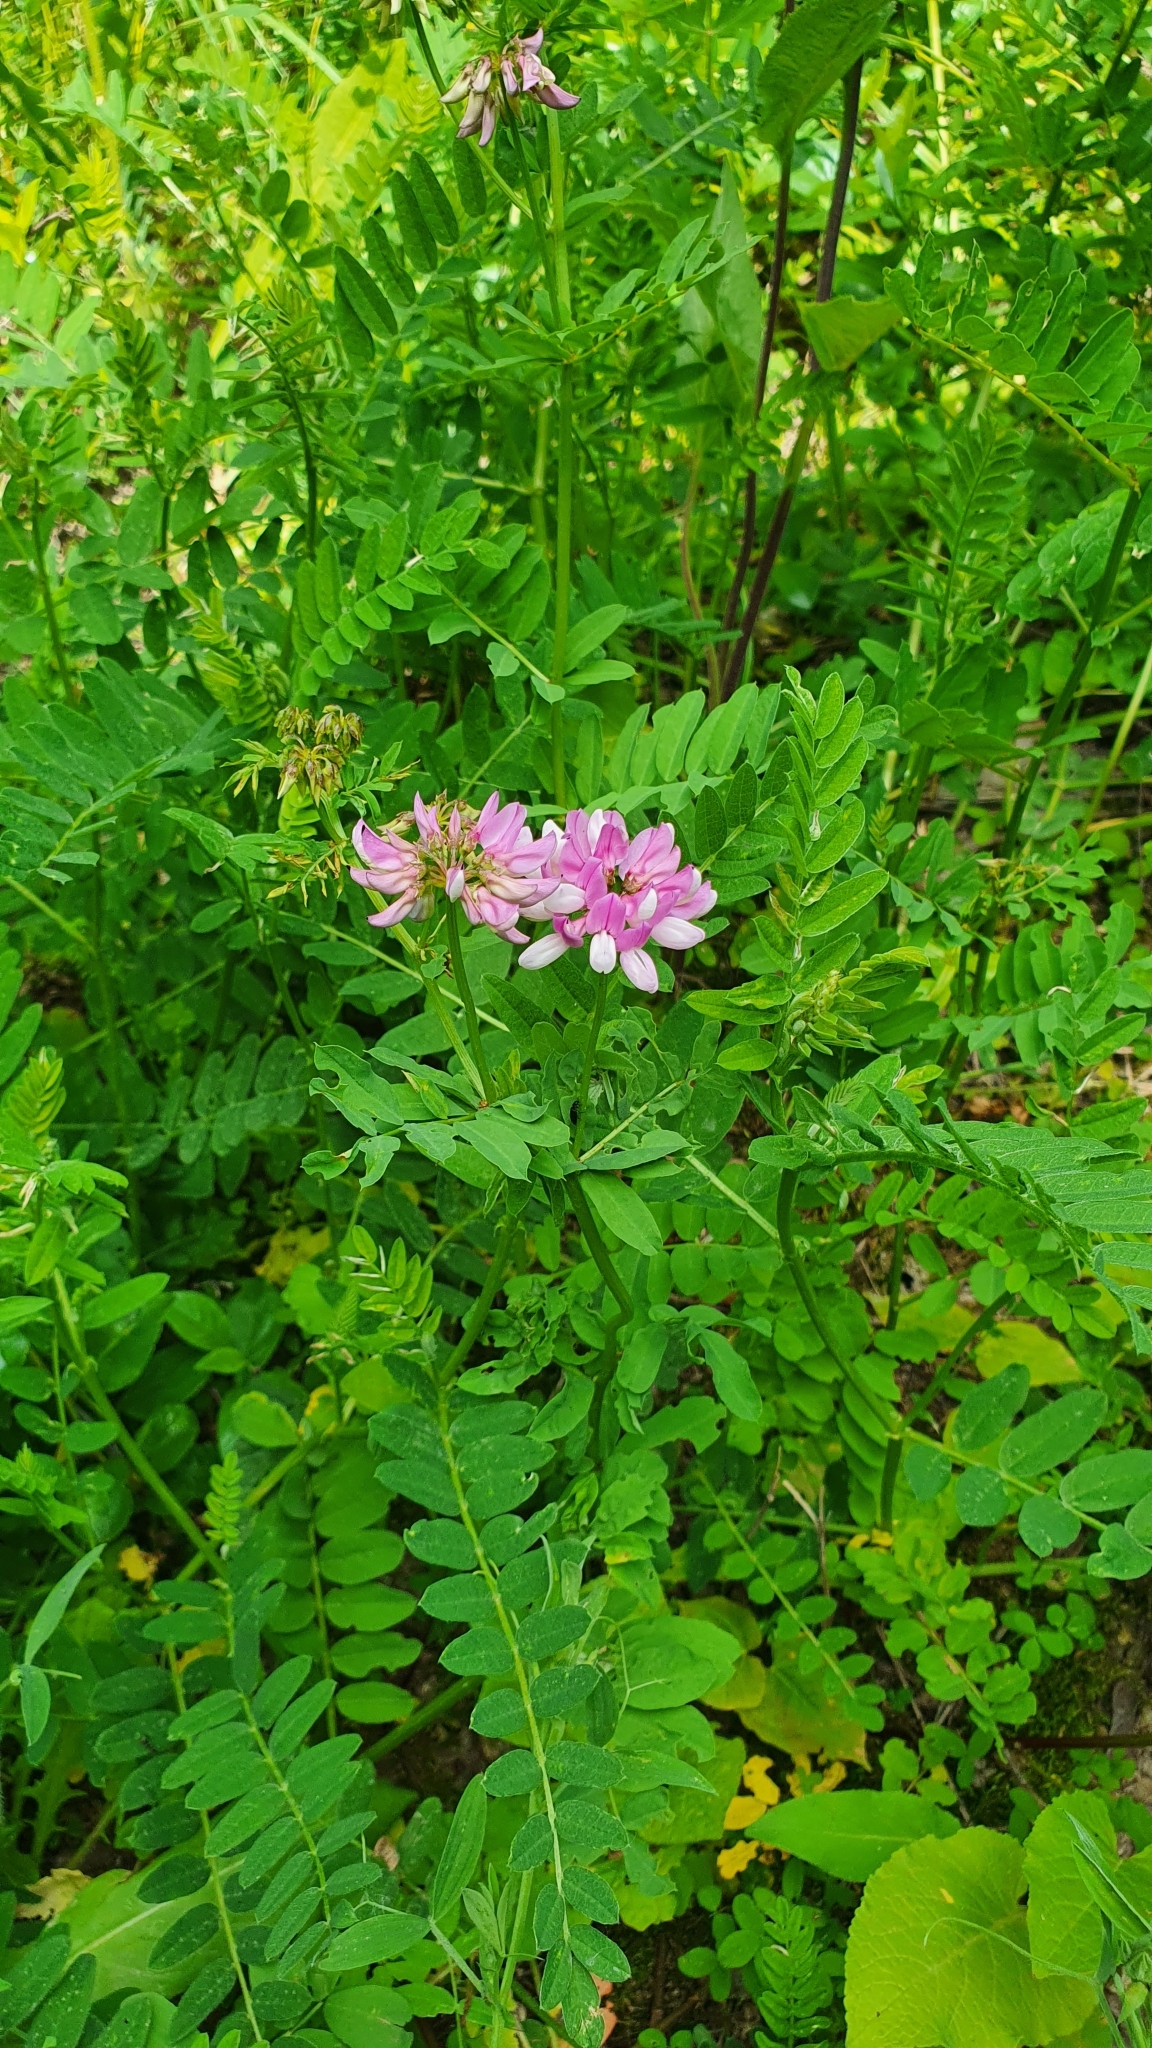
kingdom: Plantae
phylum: Tracheophyta
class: Magnoliopsida
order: Fabales
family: Fabaceae
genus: Coronilla
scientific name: Coronilla varia
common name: Crownvetch
